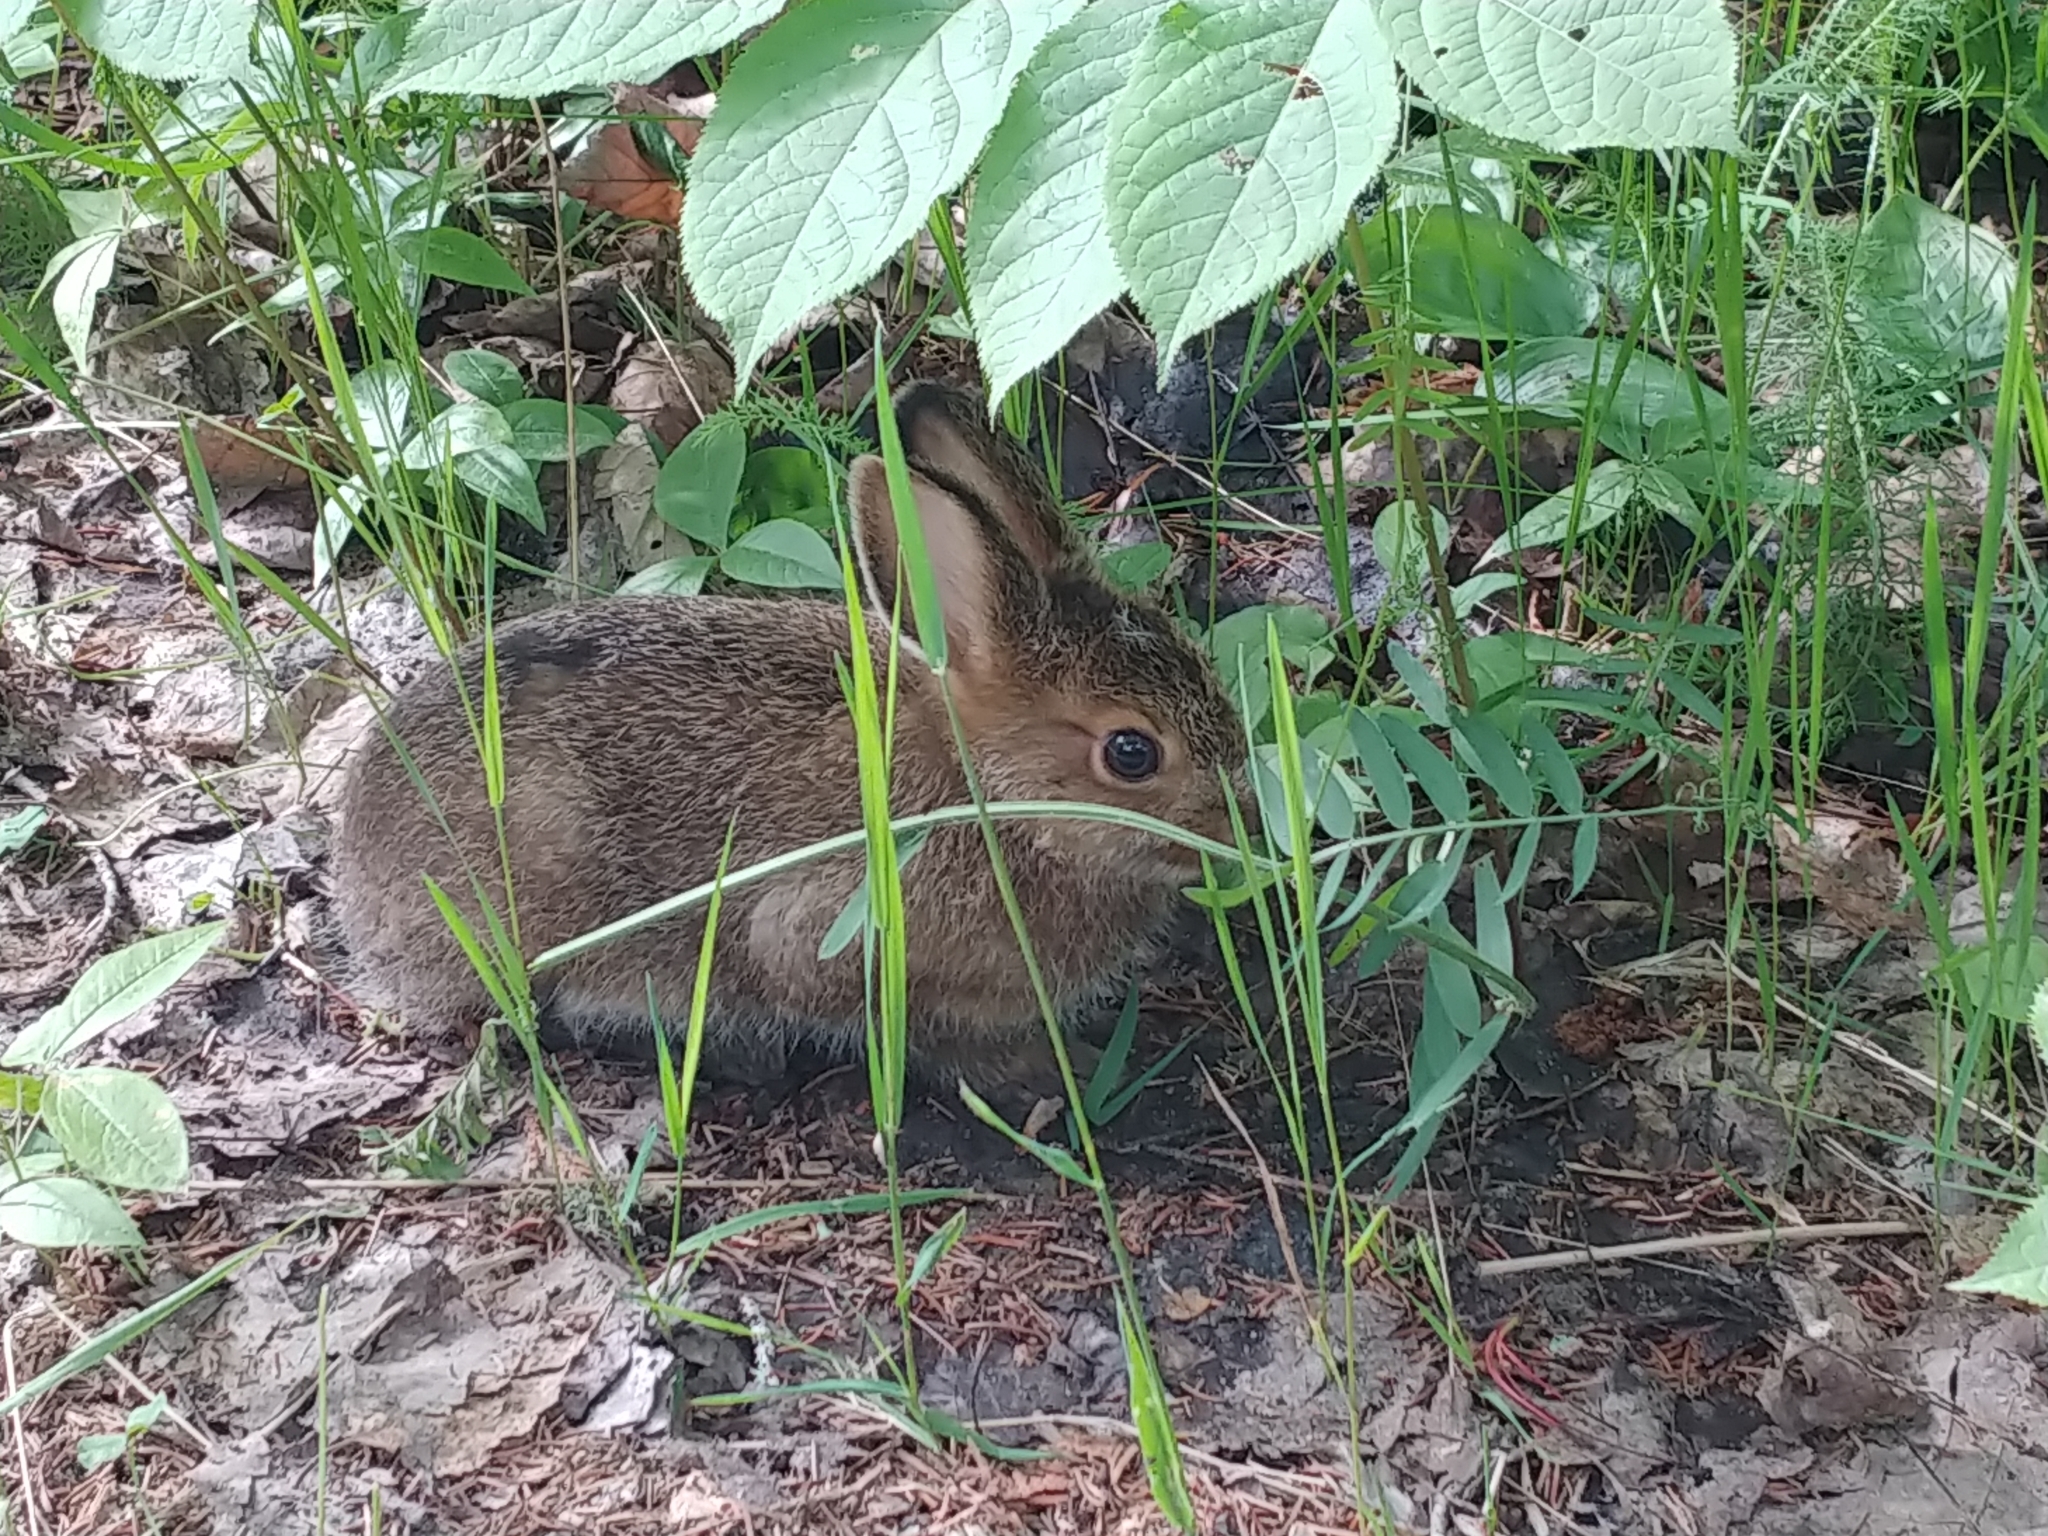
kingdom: Animalia
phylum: Chordata
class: Mammalia
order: Lagomorpha
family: Leporidae
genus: Lepus
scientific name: Lepus americanus
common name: Snowshoe hare
